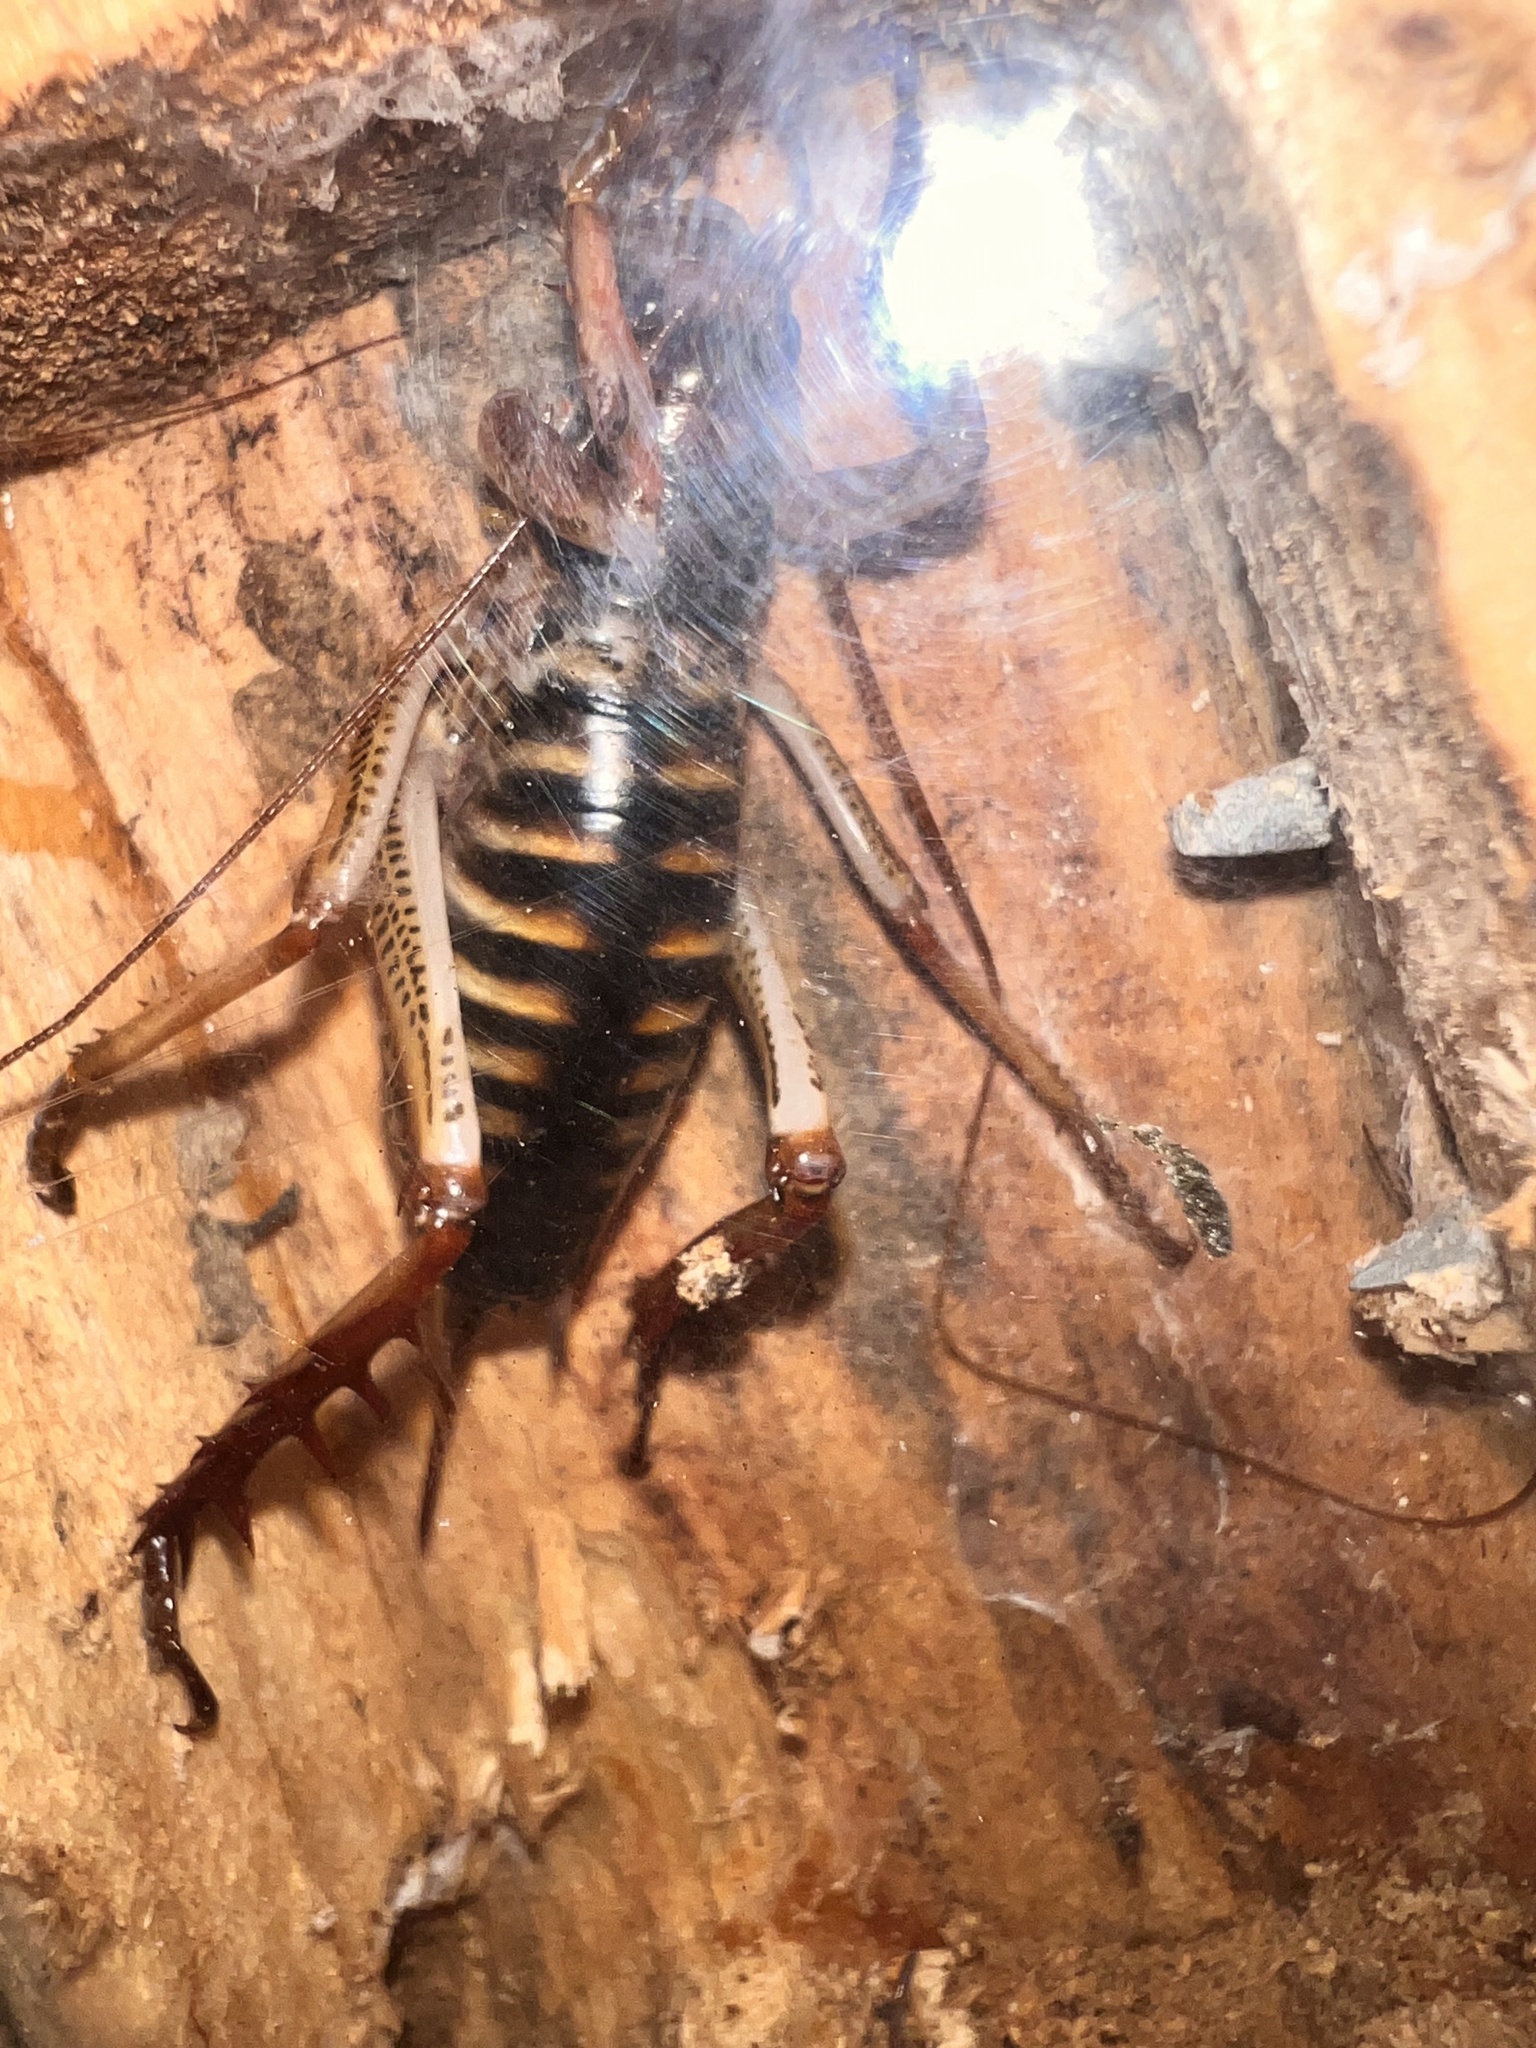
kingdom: Animalia
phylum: Arthropoda
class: Insecta
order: Orthoptera
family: Anostostomatidae
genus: Hemideina
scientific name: Hemideina crassidens
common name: Wellington tree weta
